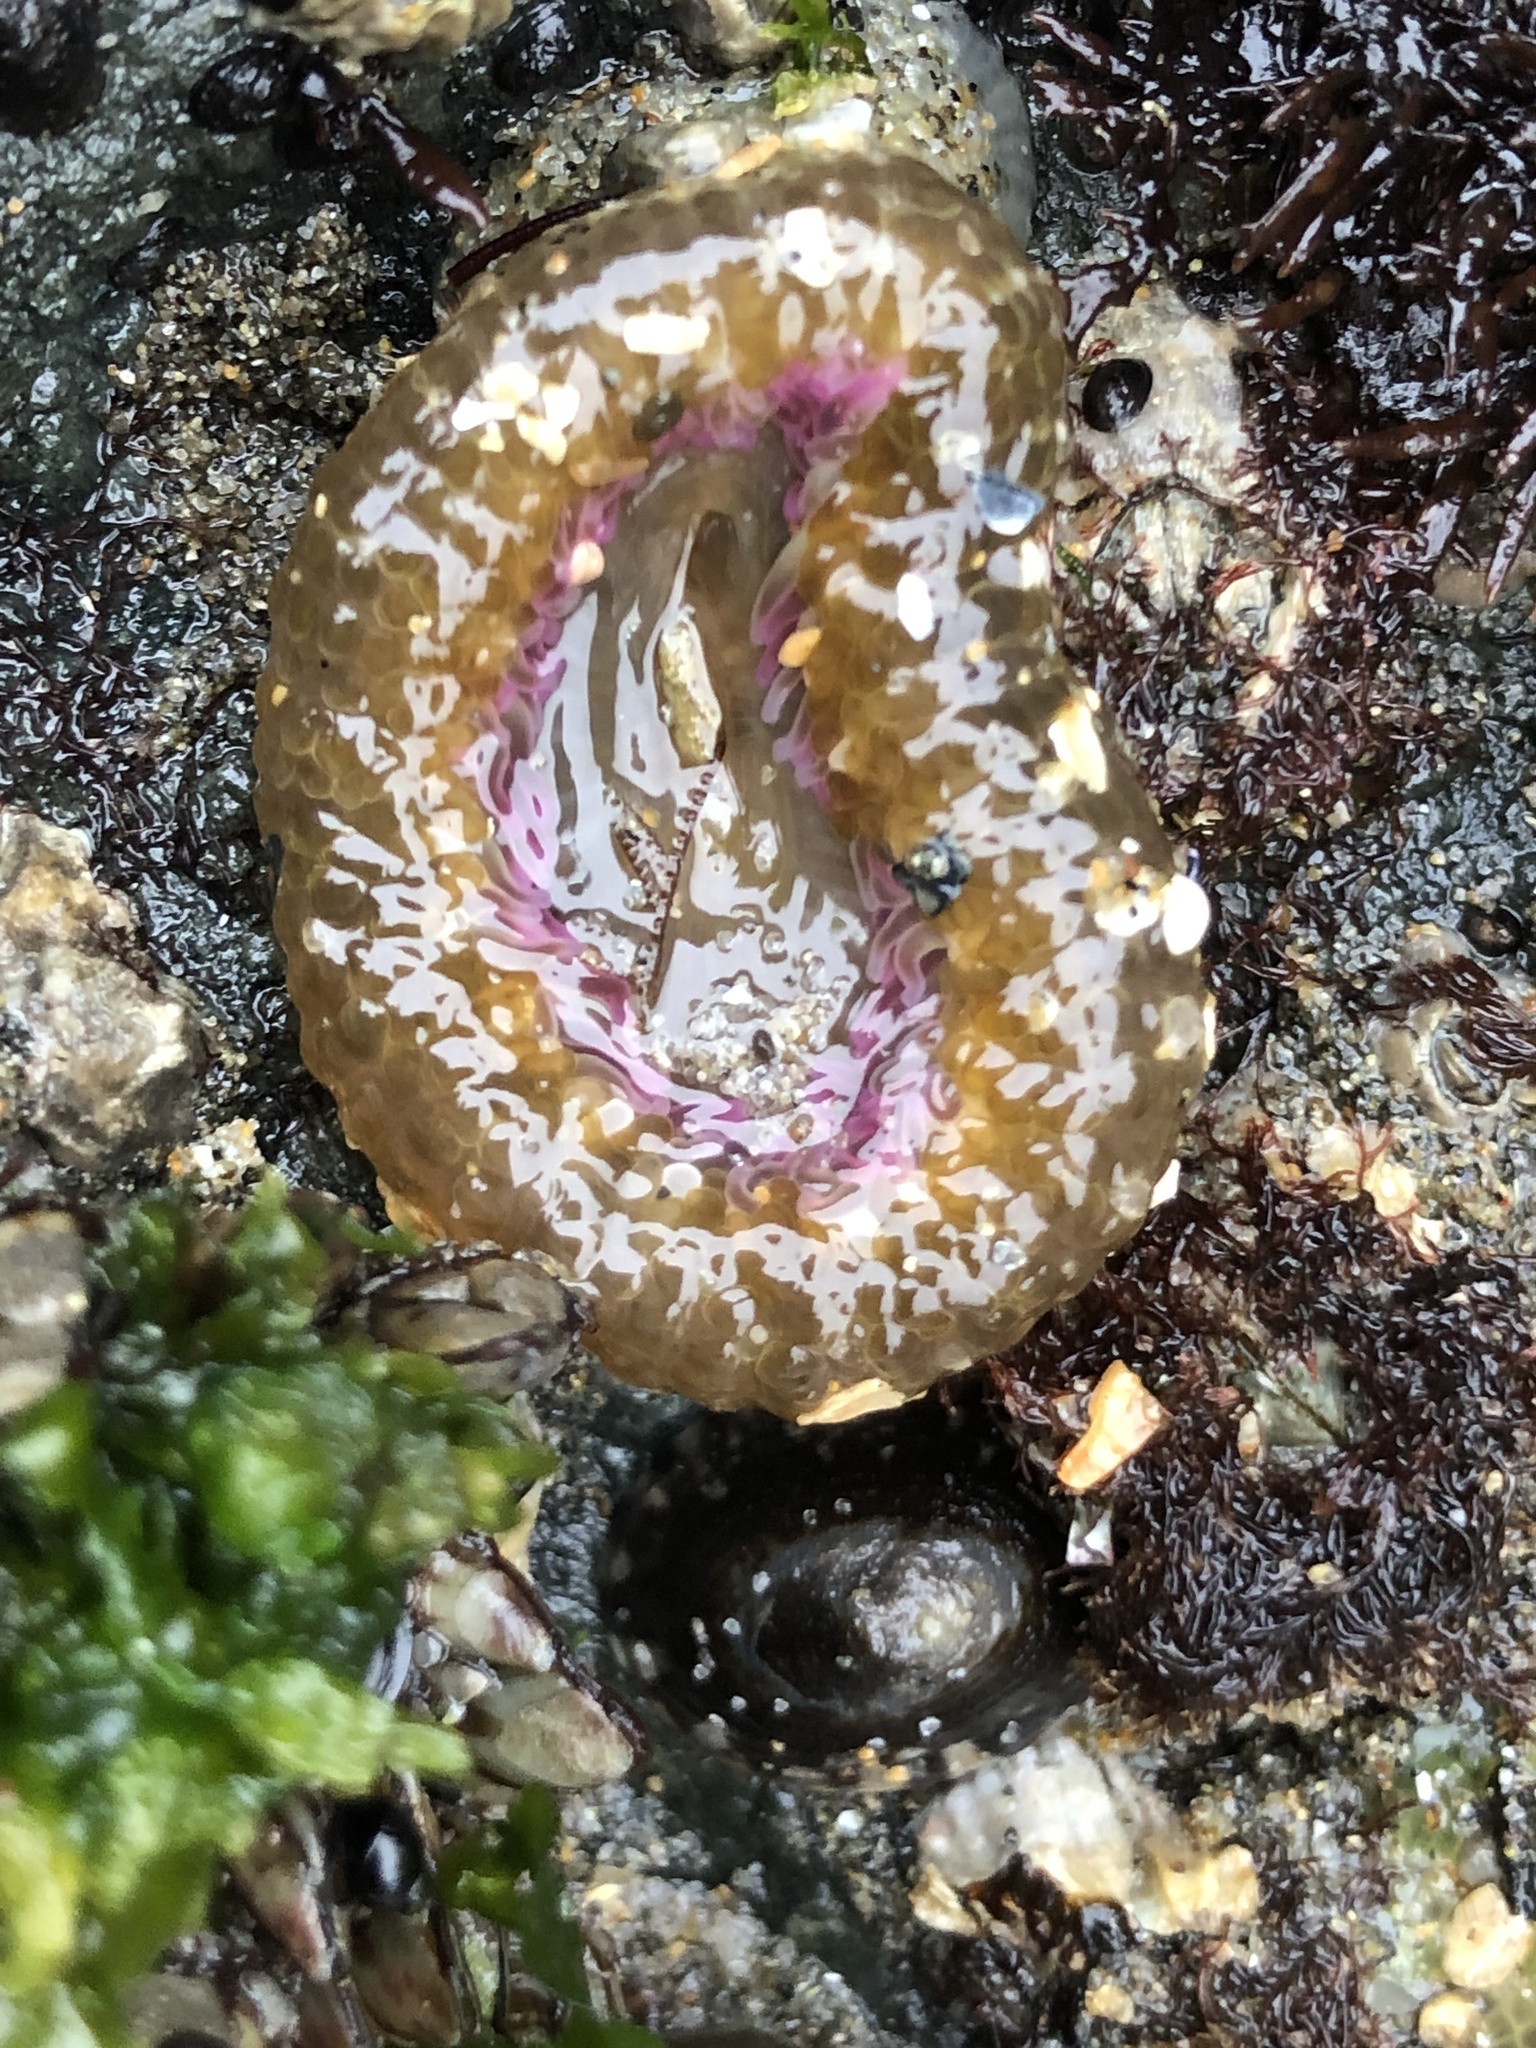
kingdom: Animalia
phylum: Cnidaria
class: Anthozoa
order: Actiniaria
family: Actiniidae
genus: Anthopleura
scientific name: Anthopleura elegantissima
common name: Clonal anemone
